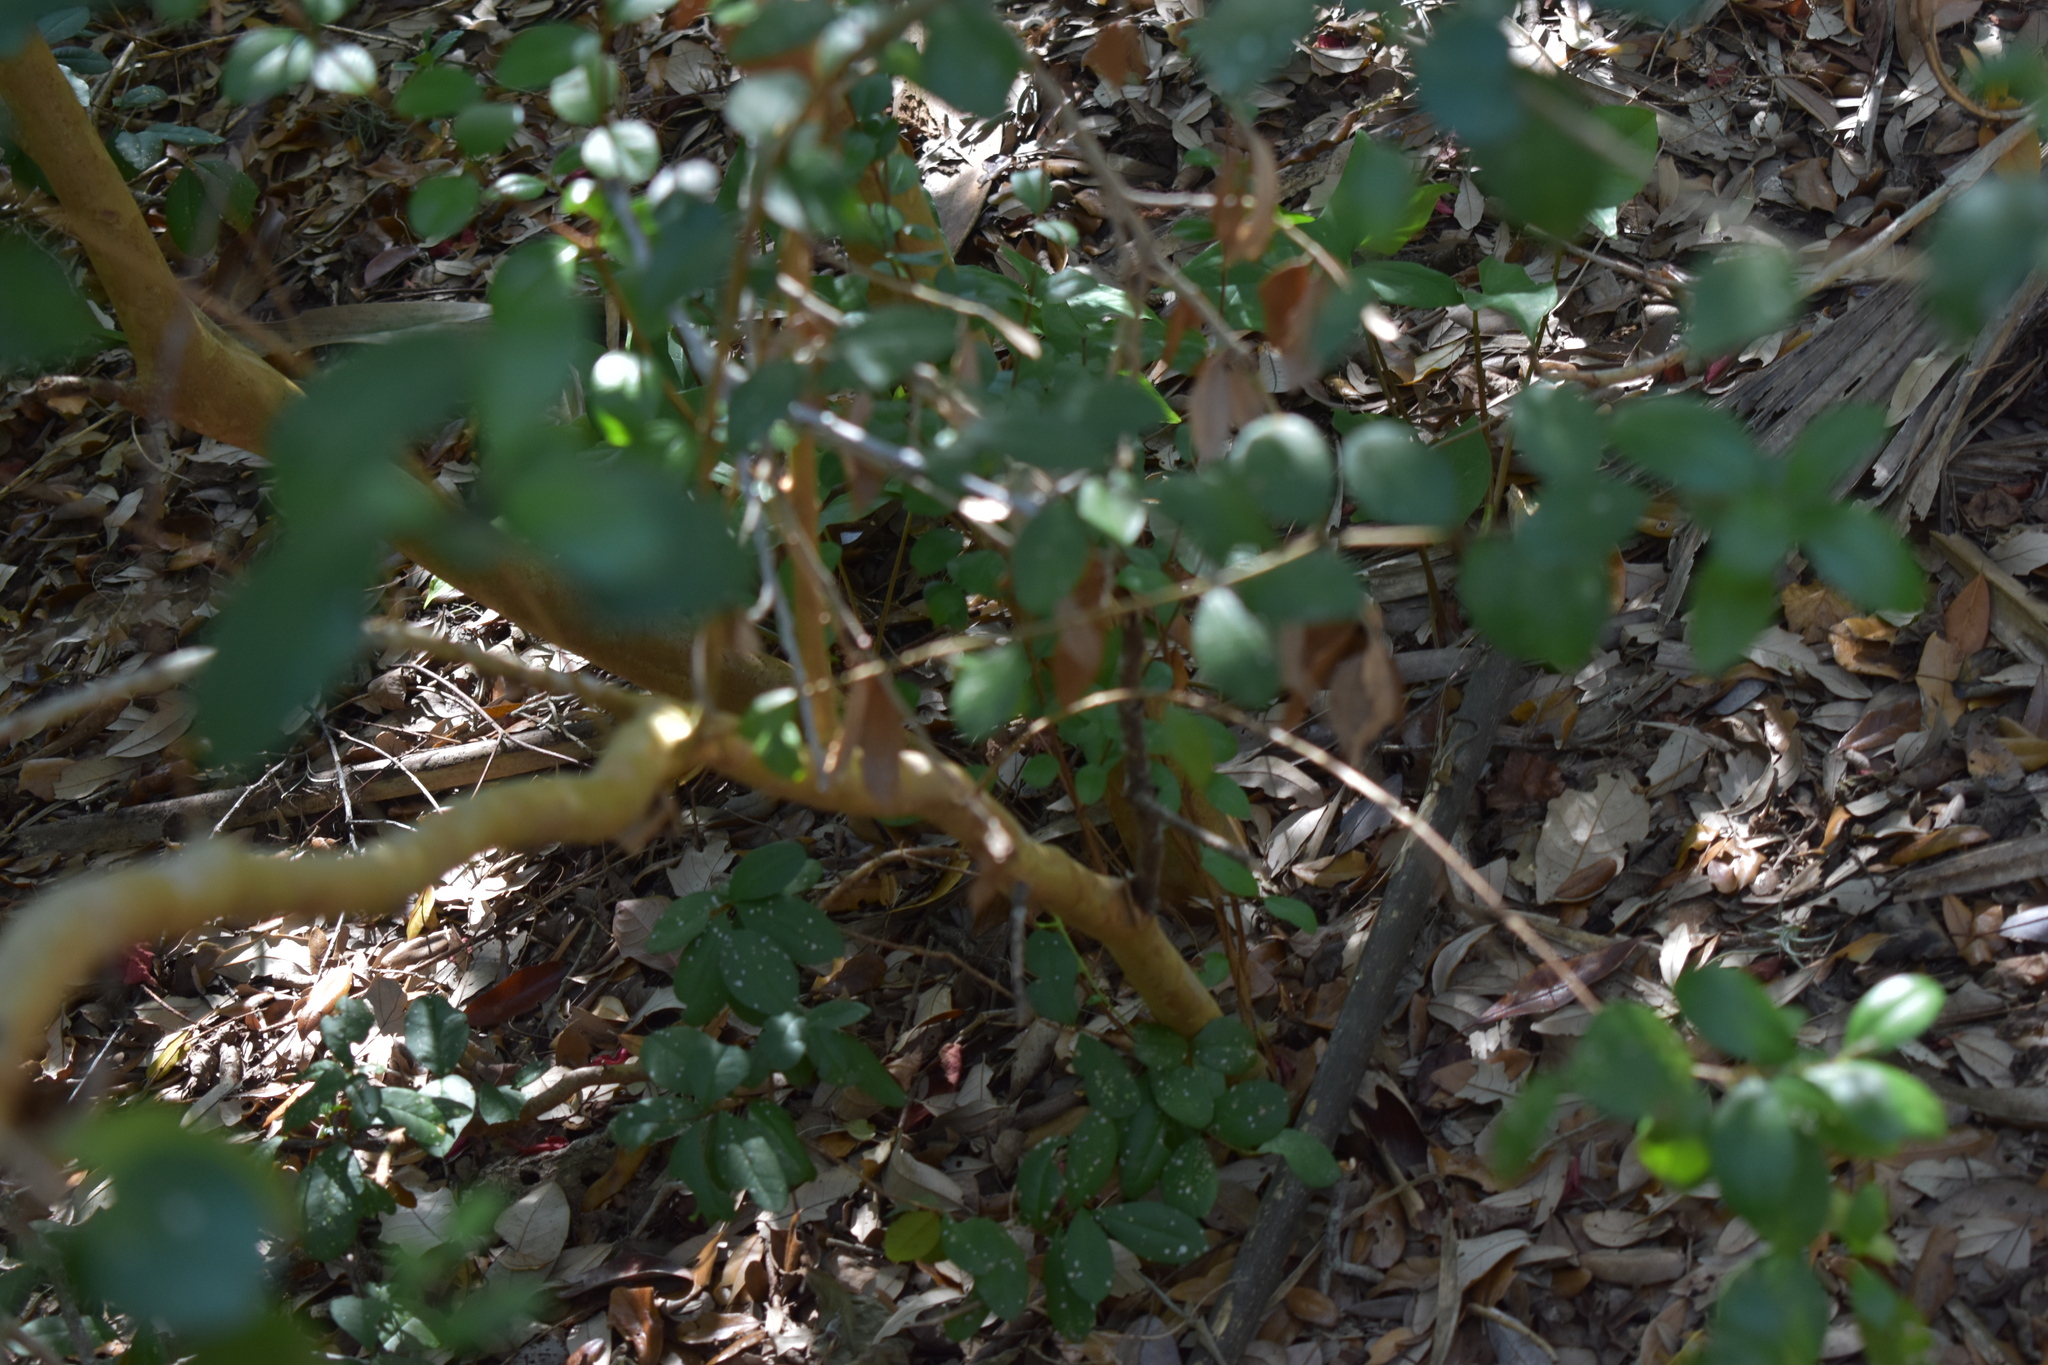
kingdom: Plantae
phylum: Tracheophyta
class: Magnoliopsida
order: Myrtales
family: Myrtaceae
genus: Myrcianthes
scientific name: Myrcianthes fragrans
